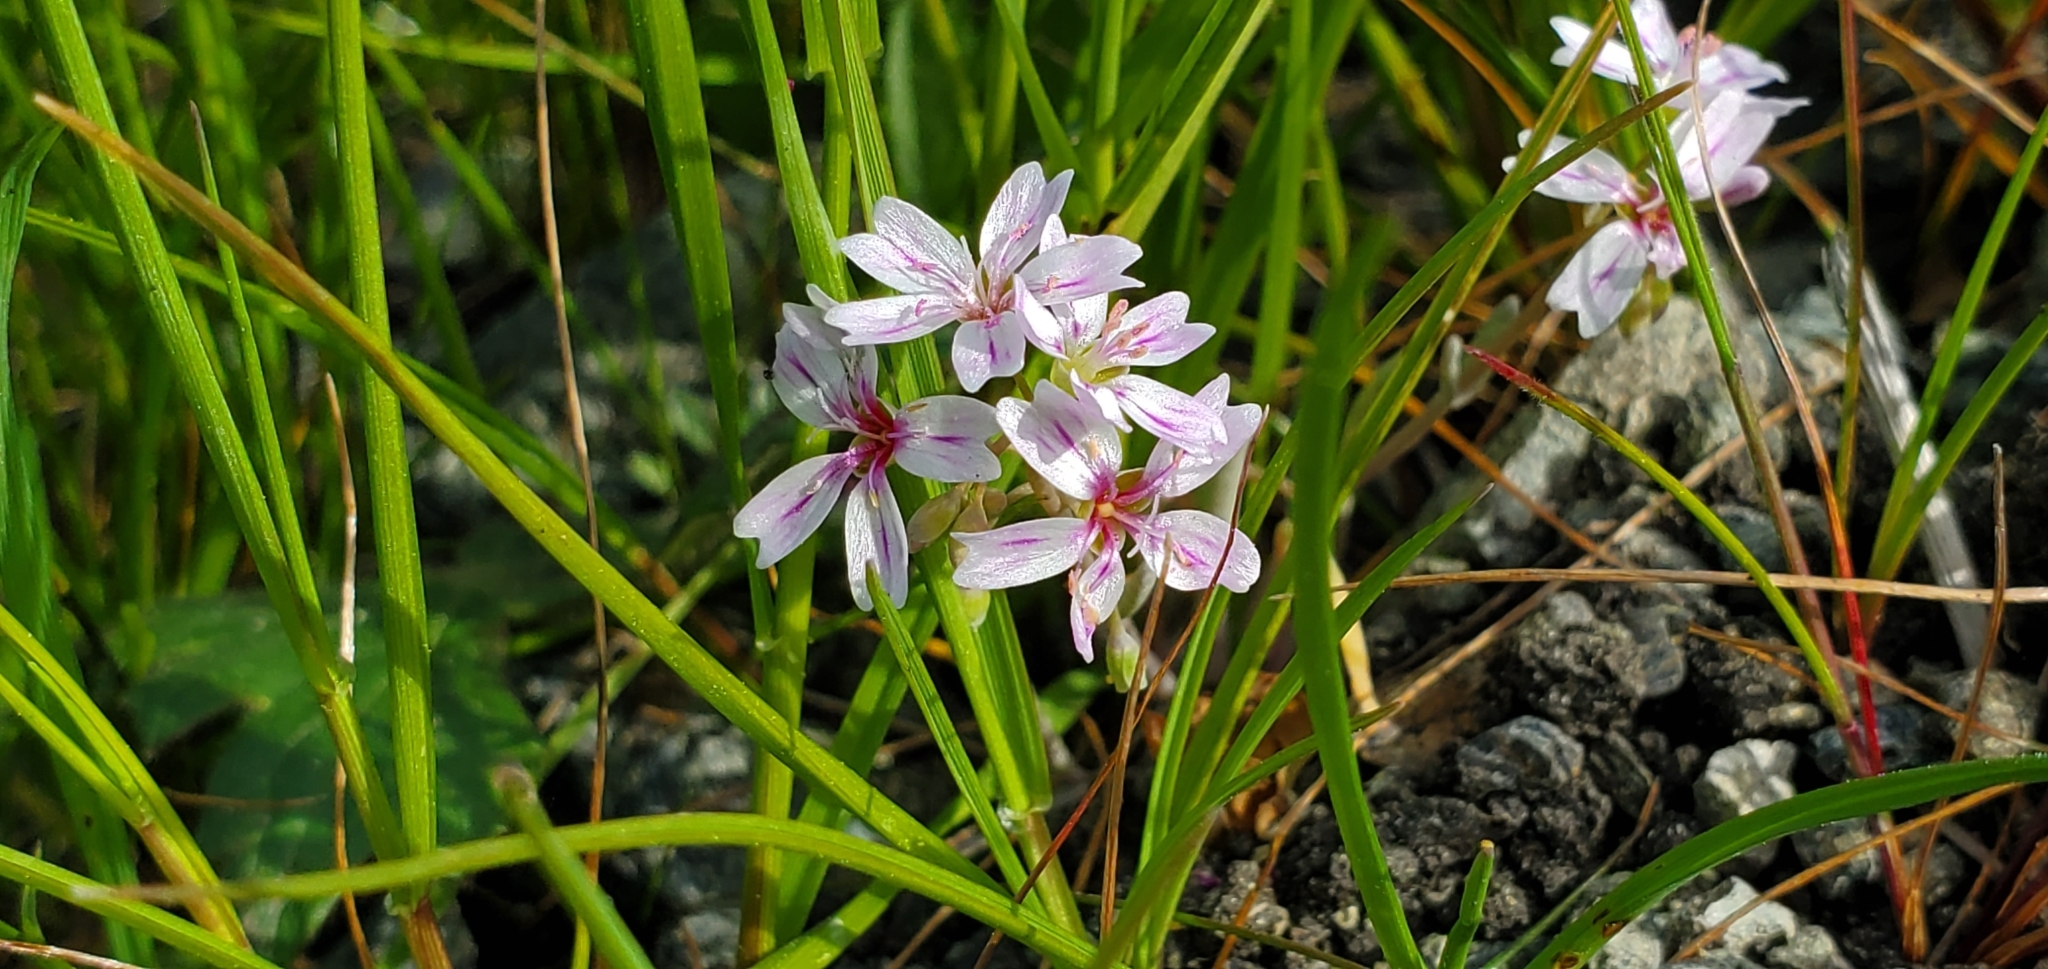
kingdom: Plantae
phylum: Tracheophyta
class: Magnoliopsida
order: Caryophyllales
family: Montiaceae
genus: Claytonia
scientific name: Claytonia gypsophiloides
